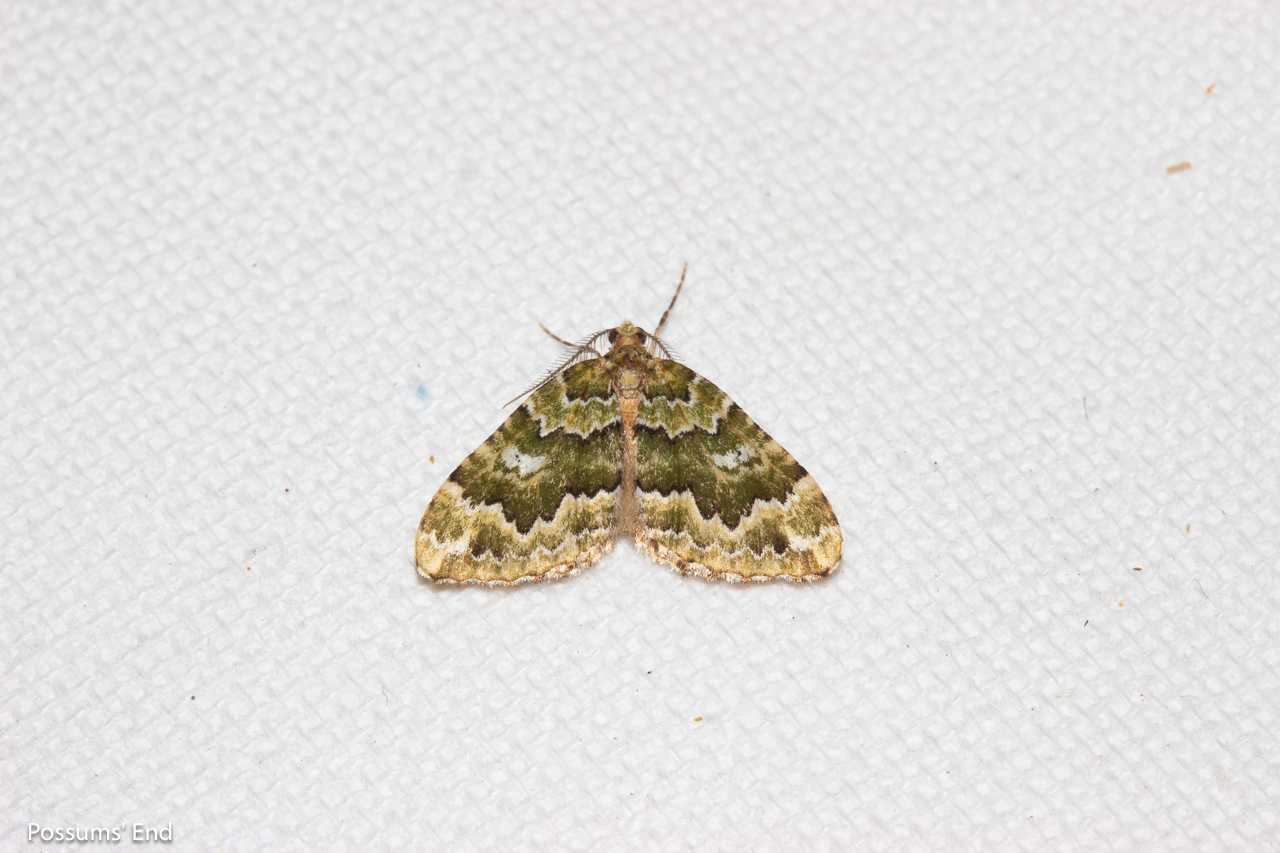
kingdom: Animalia
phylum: Arthropoda
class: Insecta
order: Lepidoptera
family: Geometridae
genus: Asaphodes
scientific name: Asaphodes beata
